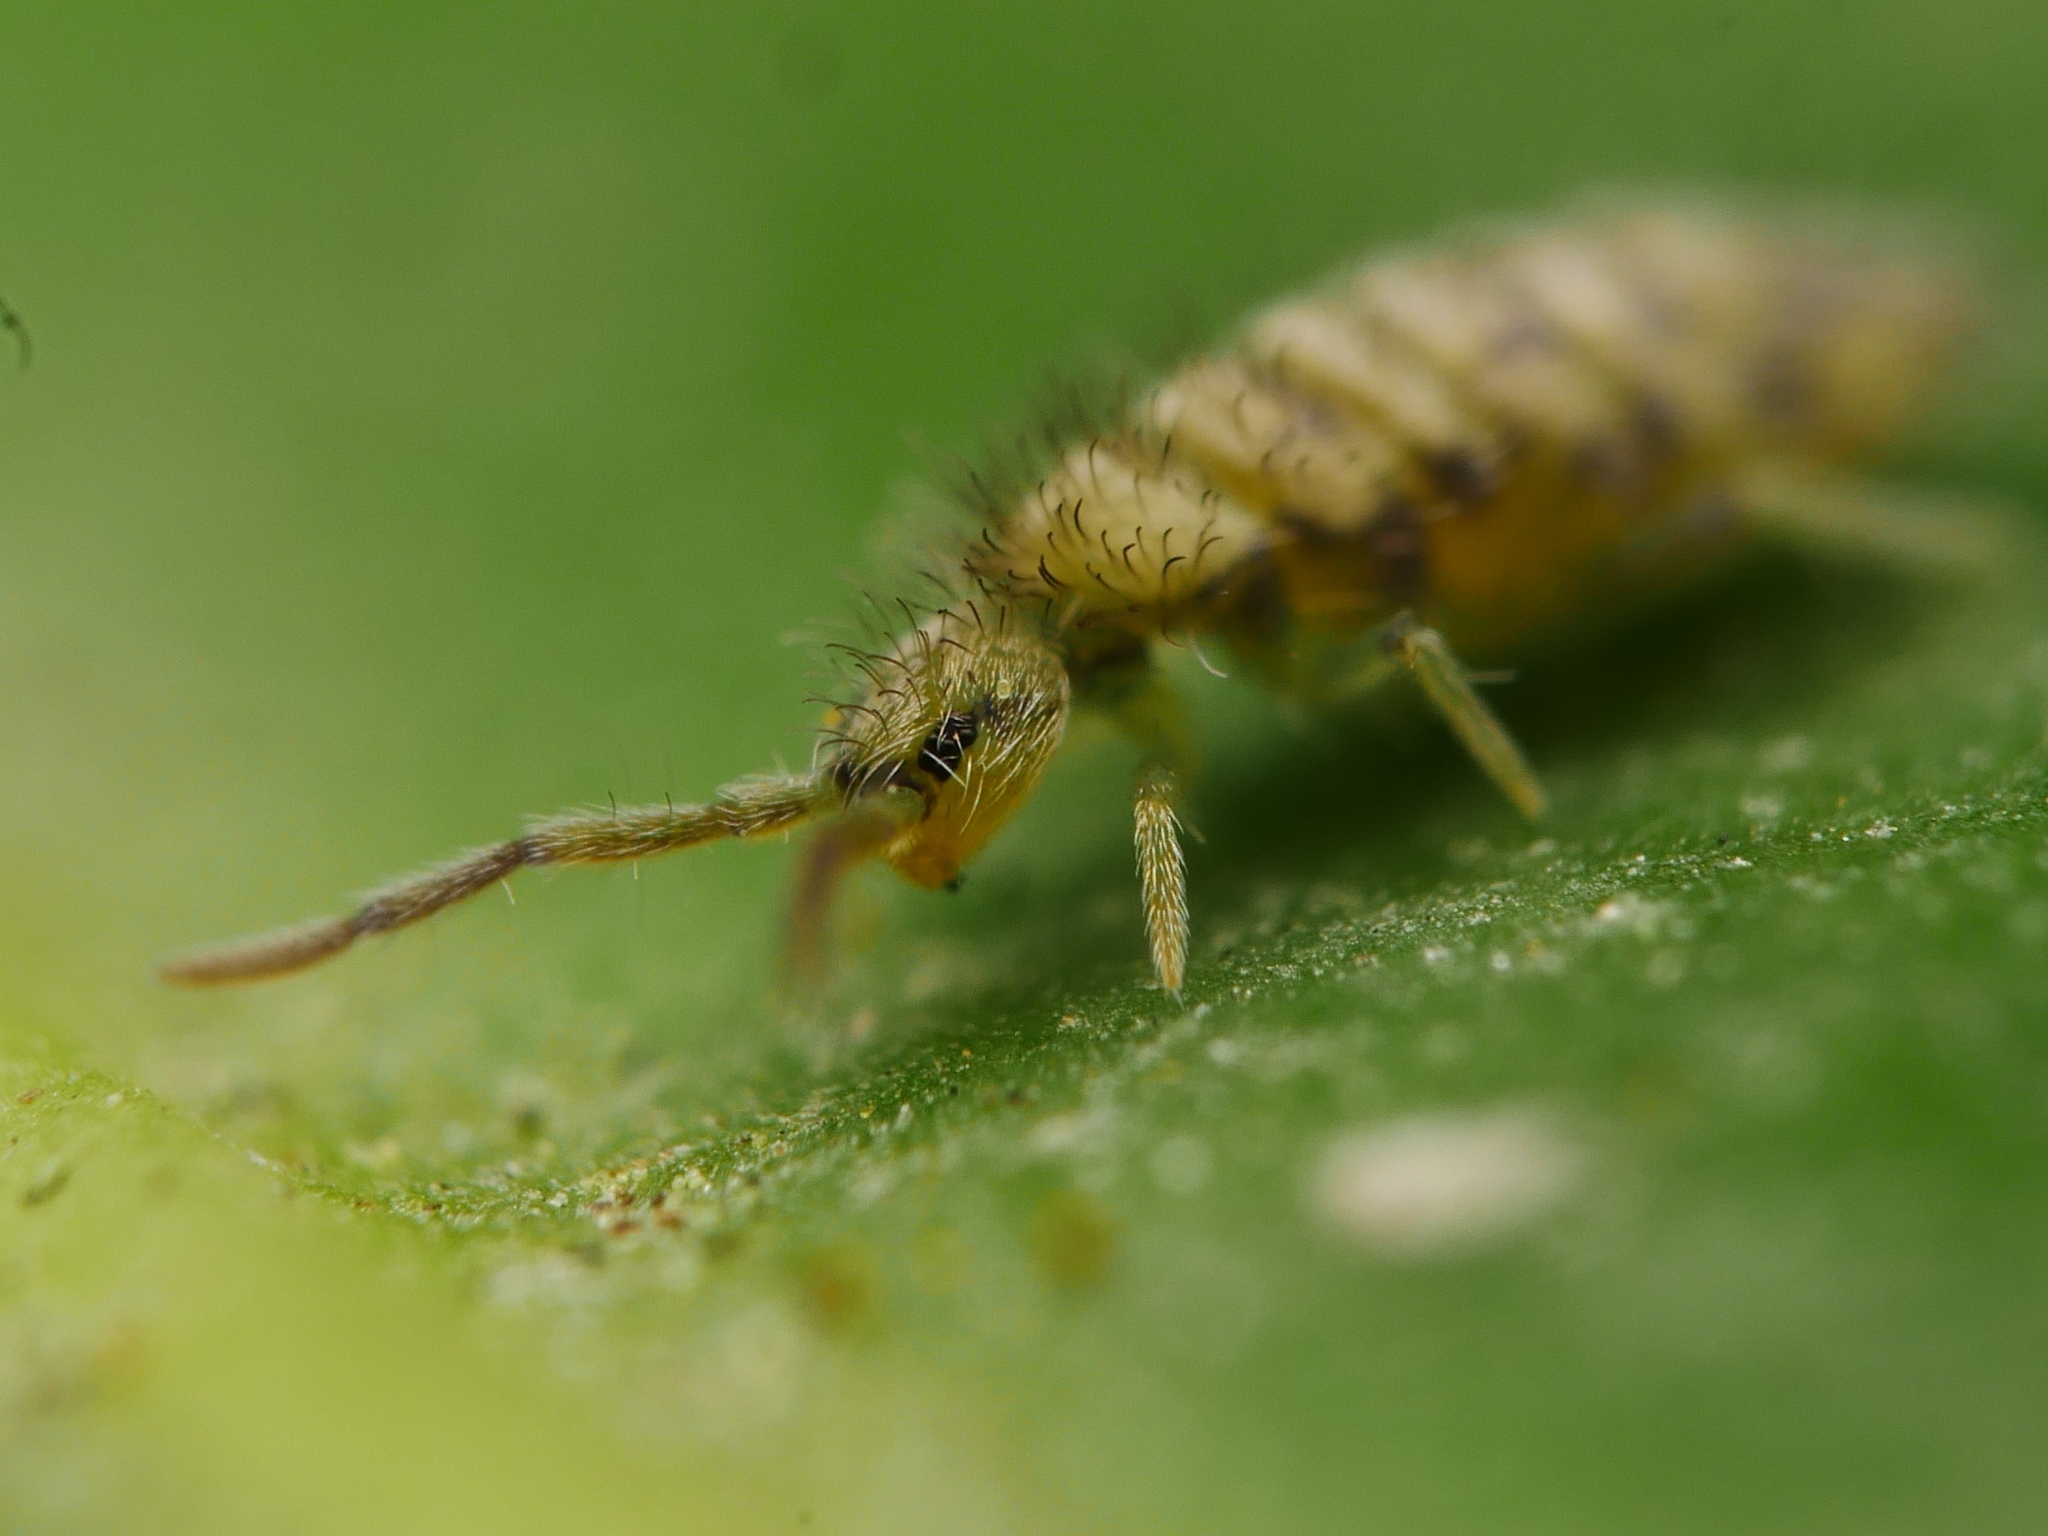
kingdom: Animalia
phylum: Arthropoda
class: Collembola
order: Entomobryomorpha
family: Entomobryidae
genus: Entomobrya
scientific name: Entomobrya nivalis
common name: Cosmopolitan springtail
